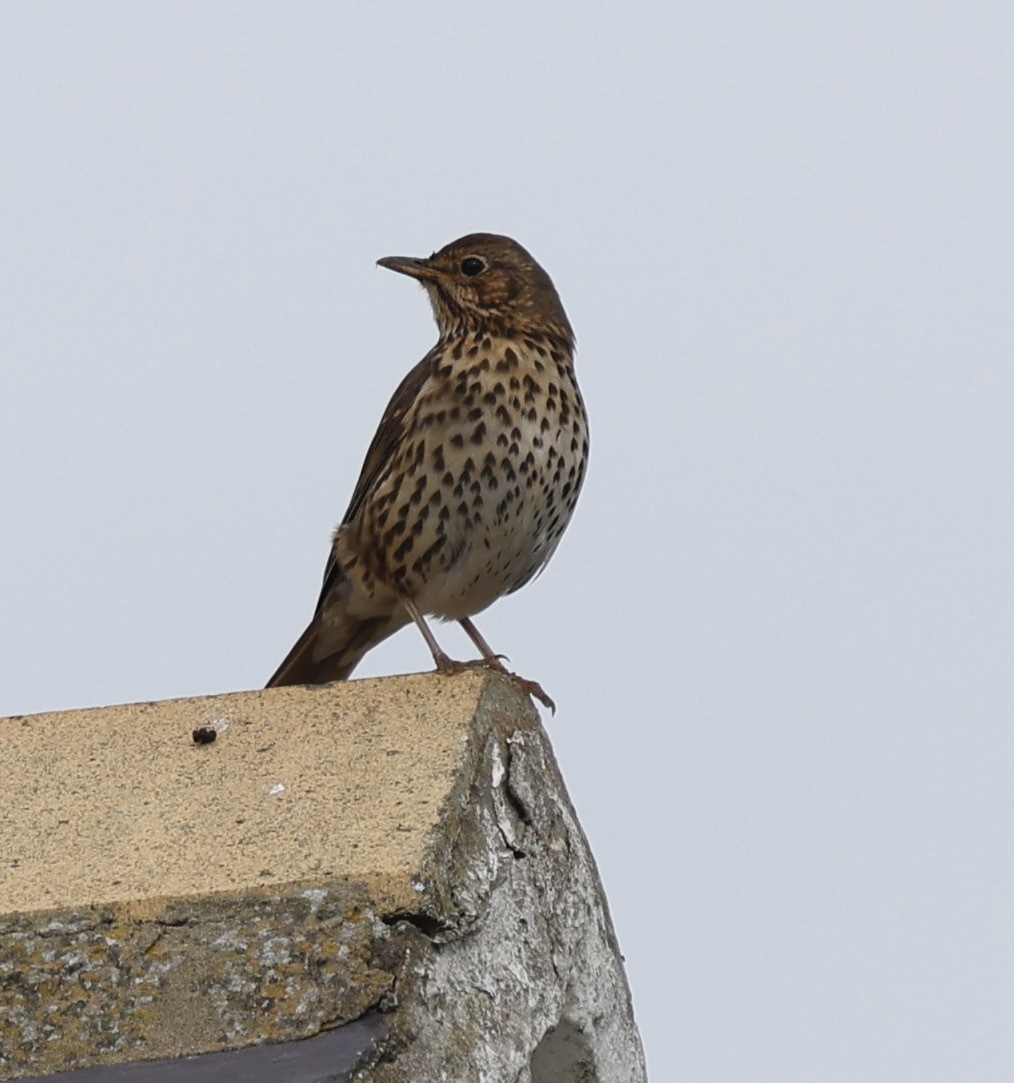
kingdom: Animalia
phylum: Chordata
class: Aves
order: Passeriformes
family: Turdidae
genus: Turdus
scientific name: Turdus philomelos
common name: Song thrush
